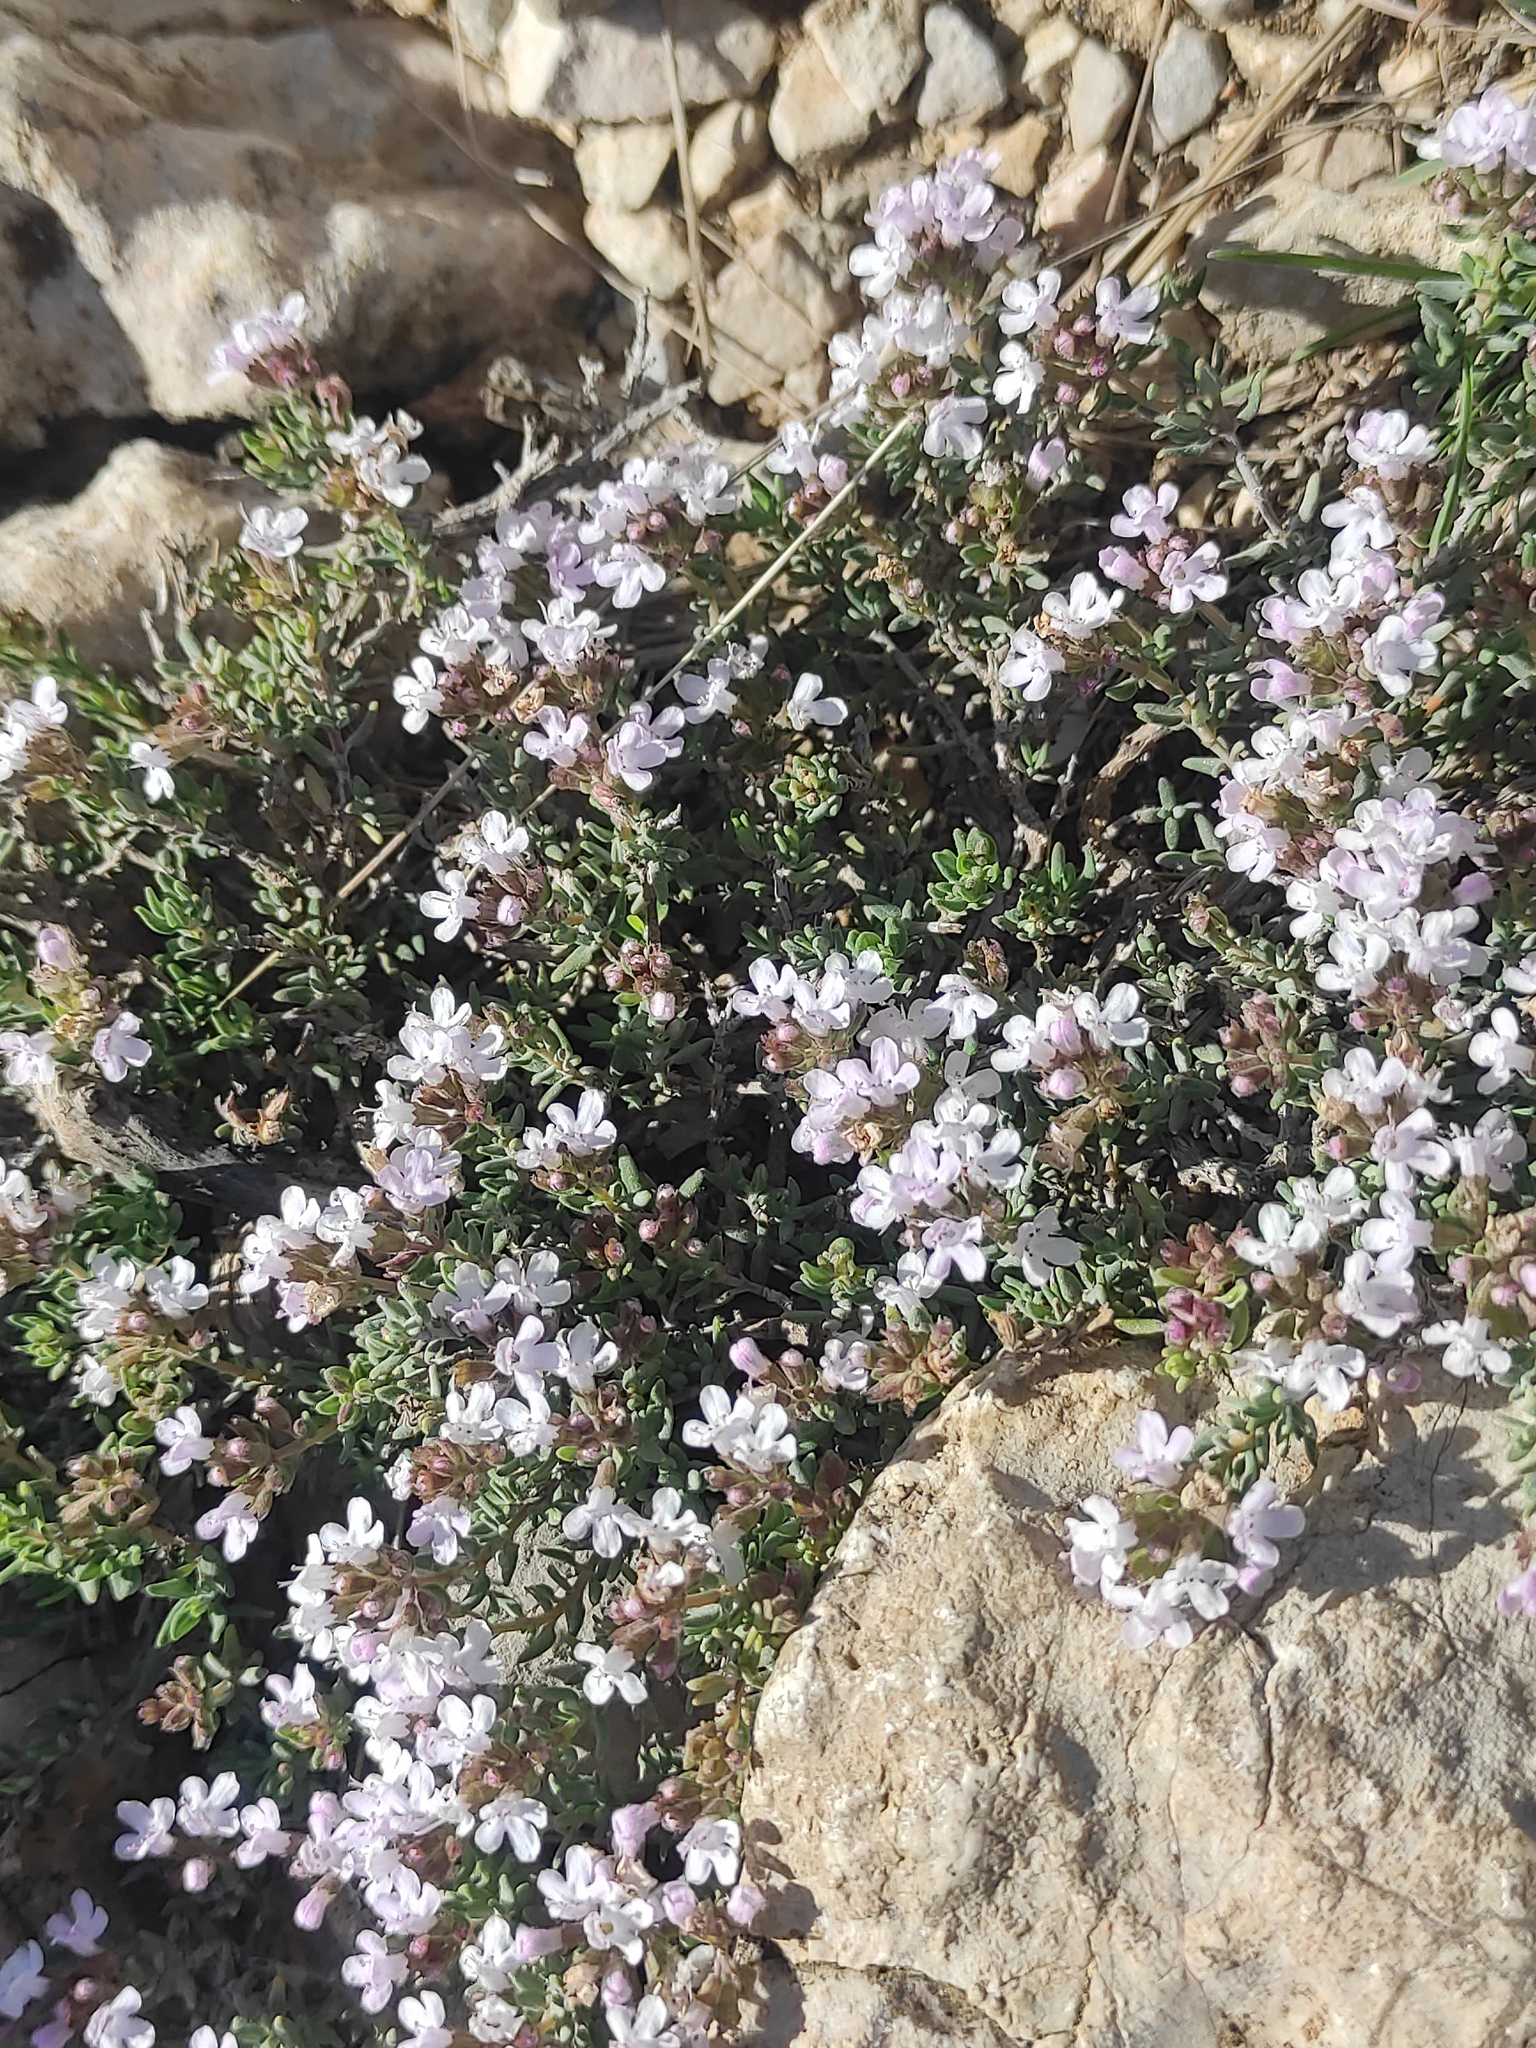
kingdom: Plantae
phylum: Tracheophyta
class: Magnoliopsida
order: Lamiales
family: Lamiaceae
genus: Thymus
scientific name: Thymus vulgaris
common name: Garden thyme
